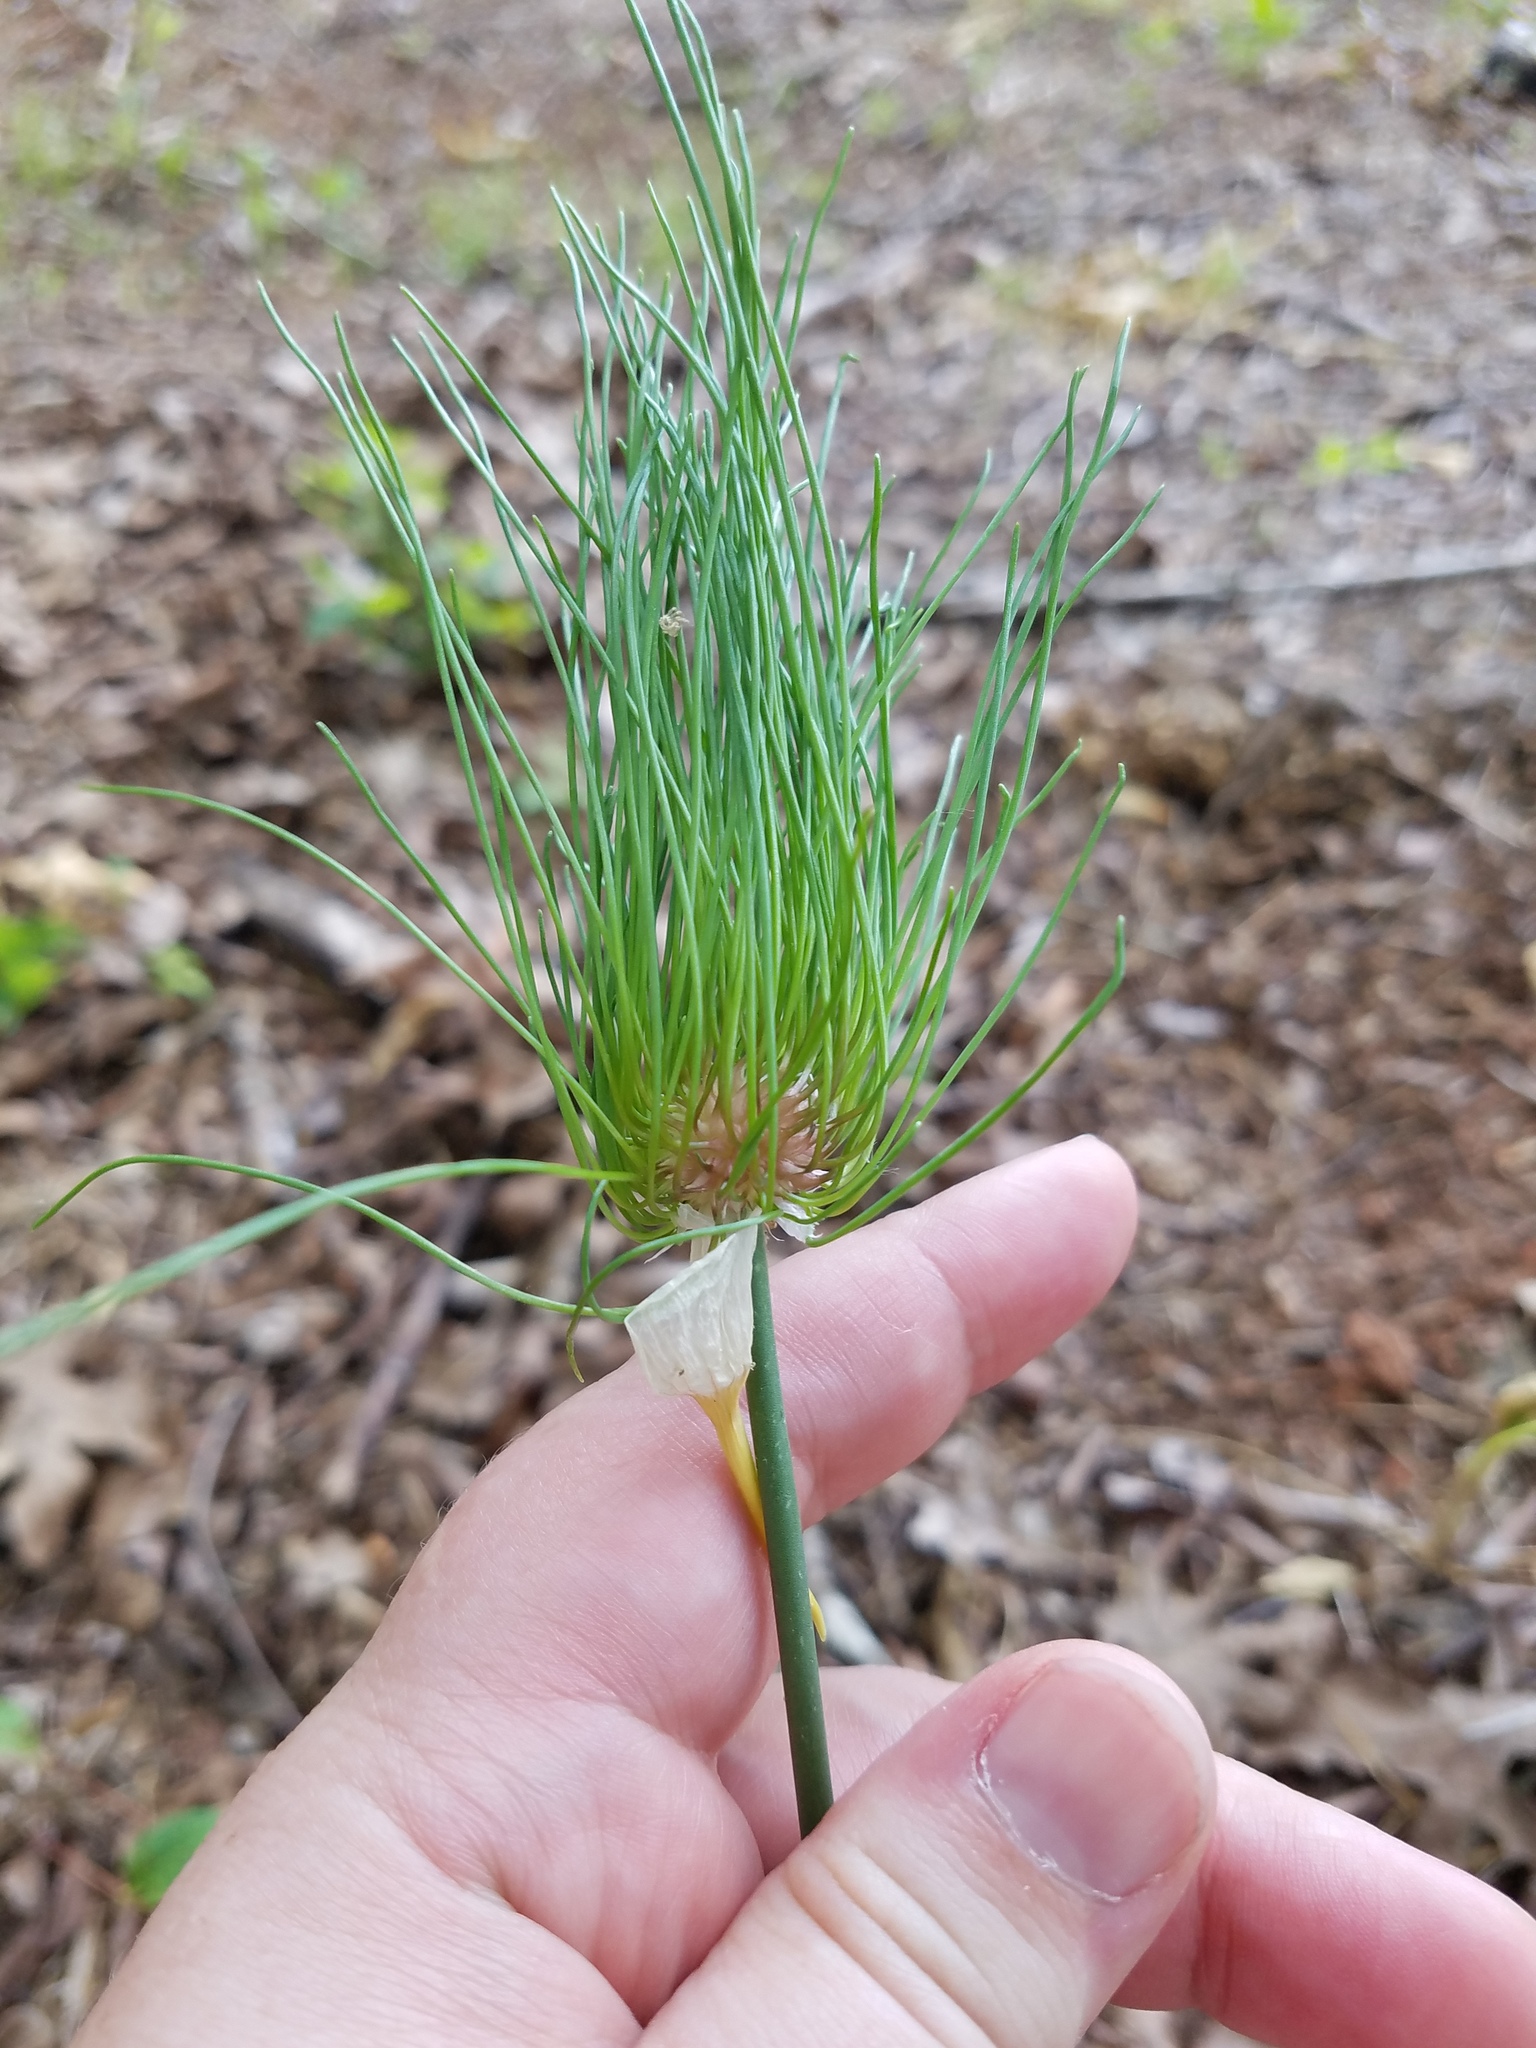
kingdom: Plantae
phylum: Tracheophyta
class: Liliopsida
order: Asparagales
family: Amaryllidaceae
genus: Allium
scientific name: Allium vineale
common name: Crow garlic
